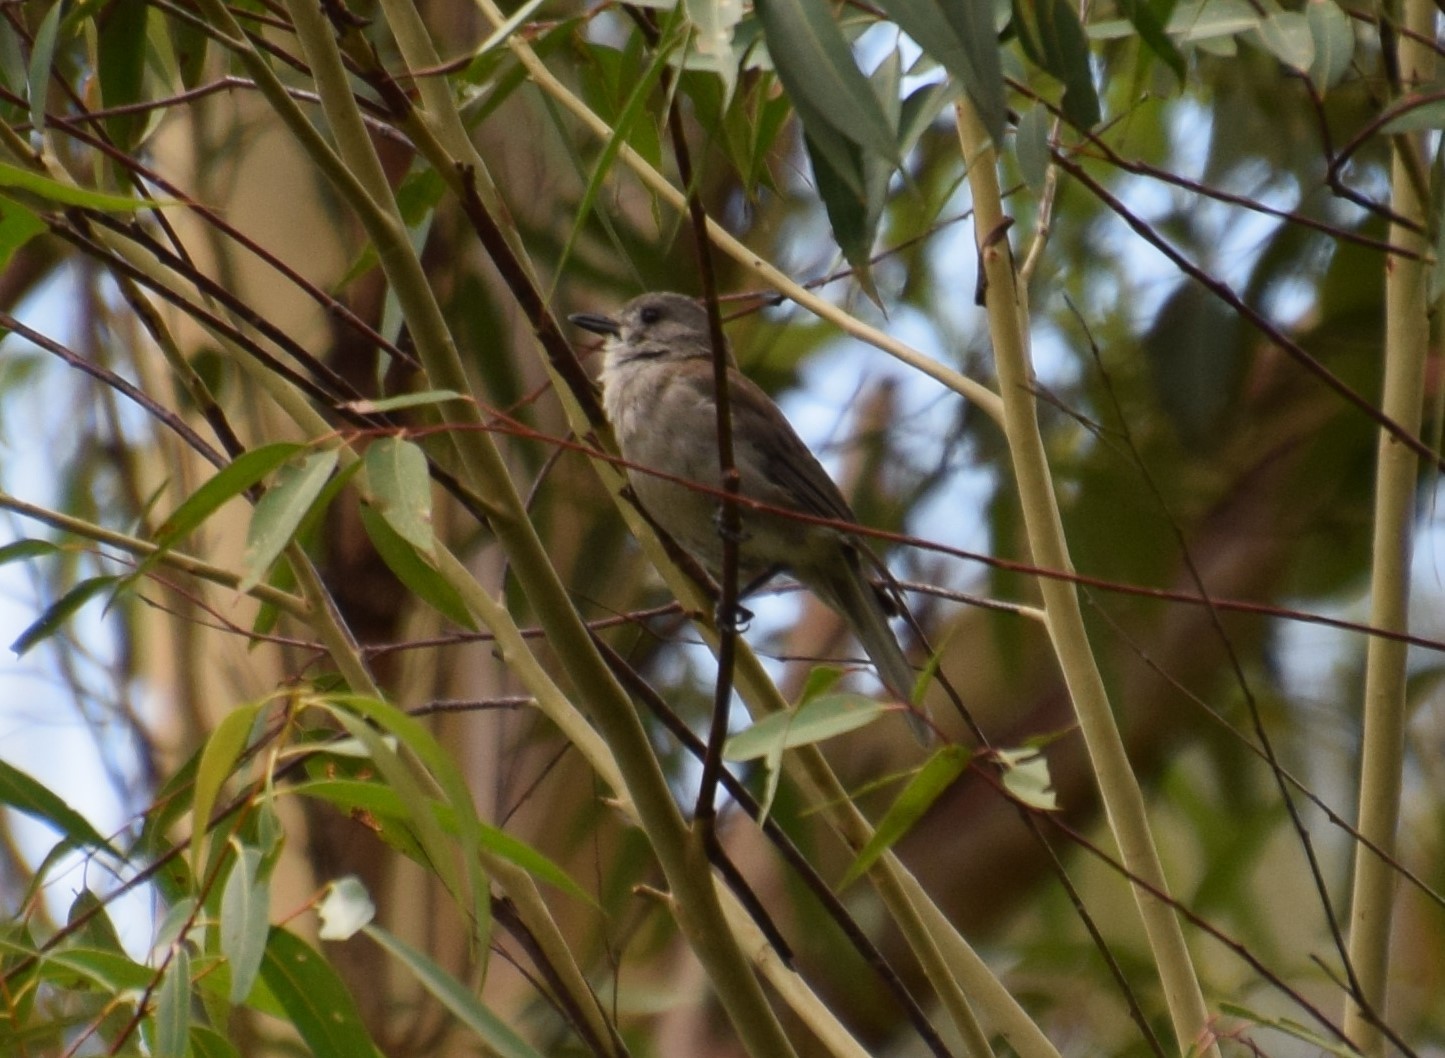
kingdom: Animalia
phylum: Chordata
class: Aves
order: Passeriformes
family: Pachycephalidae
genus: Colluricincla
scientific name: Colluricincla harmonica
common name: Grey shrikethrush
